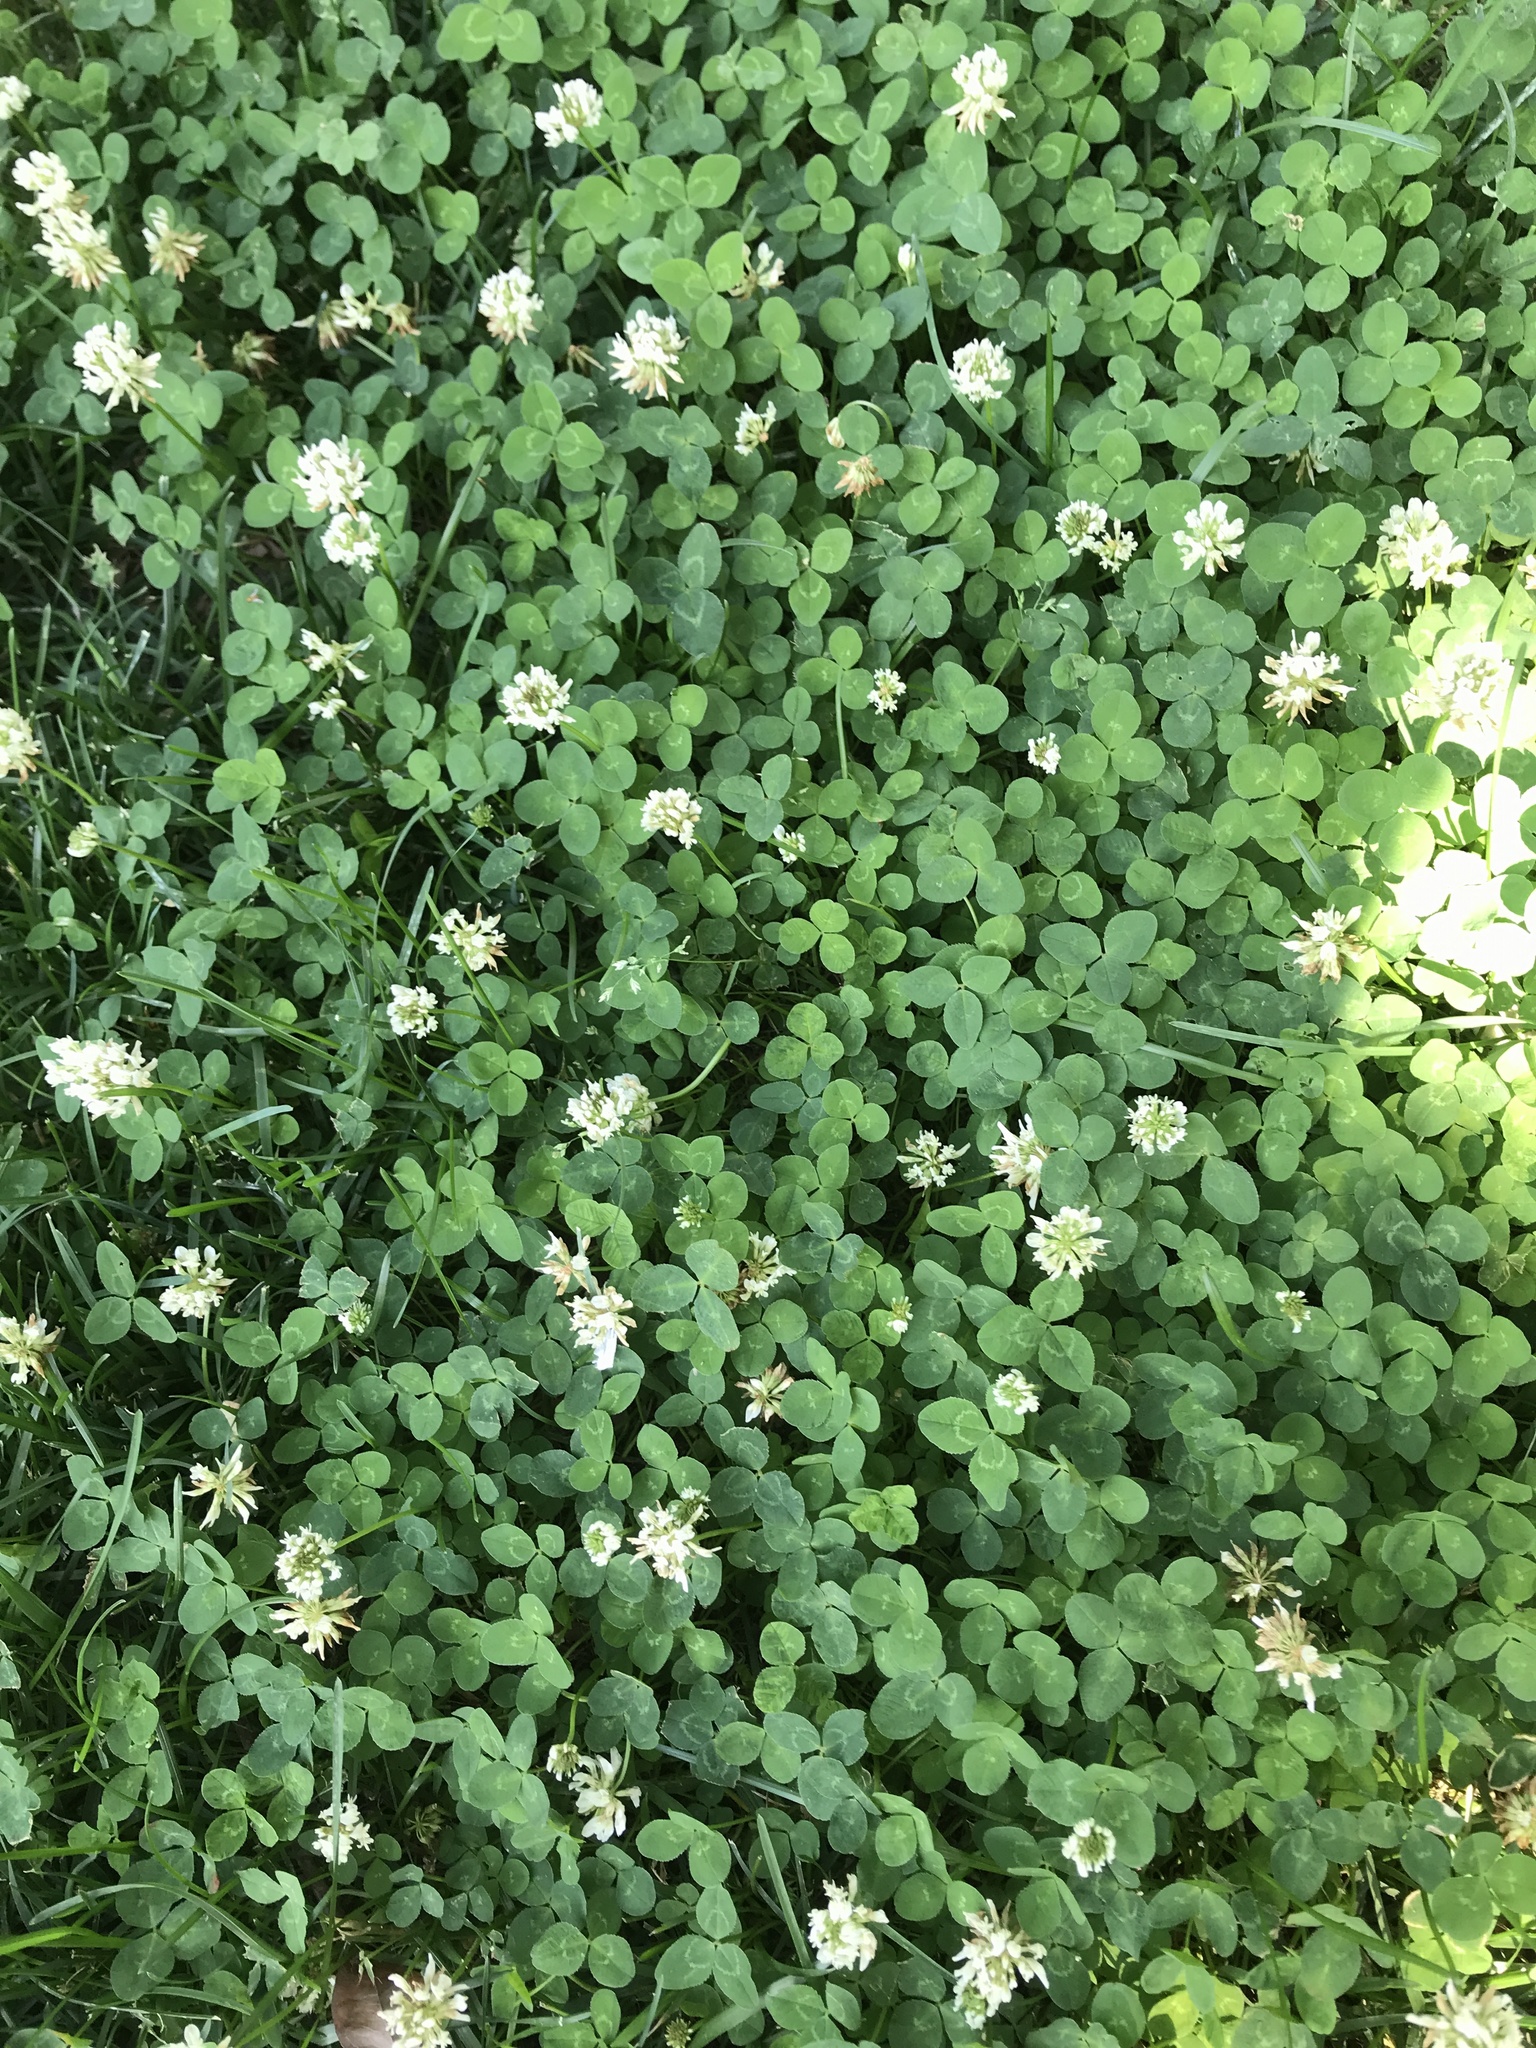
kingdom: Plantae
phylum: Tracheophyta
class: Magnoliopsida
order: Fabales
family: Fabaceae
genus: Trifolium
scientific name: Trifolium repens
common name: White clover
